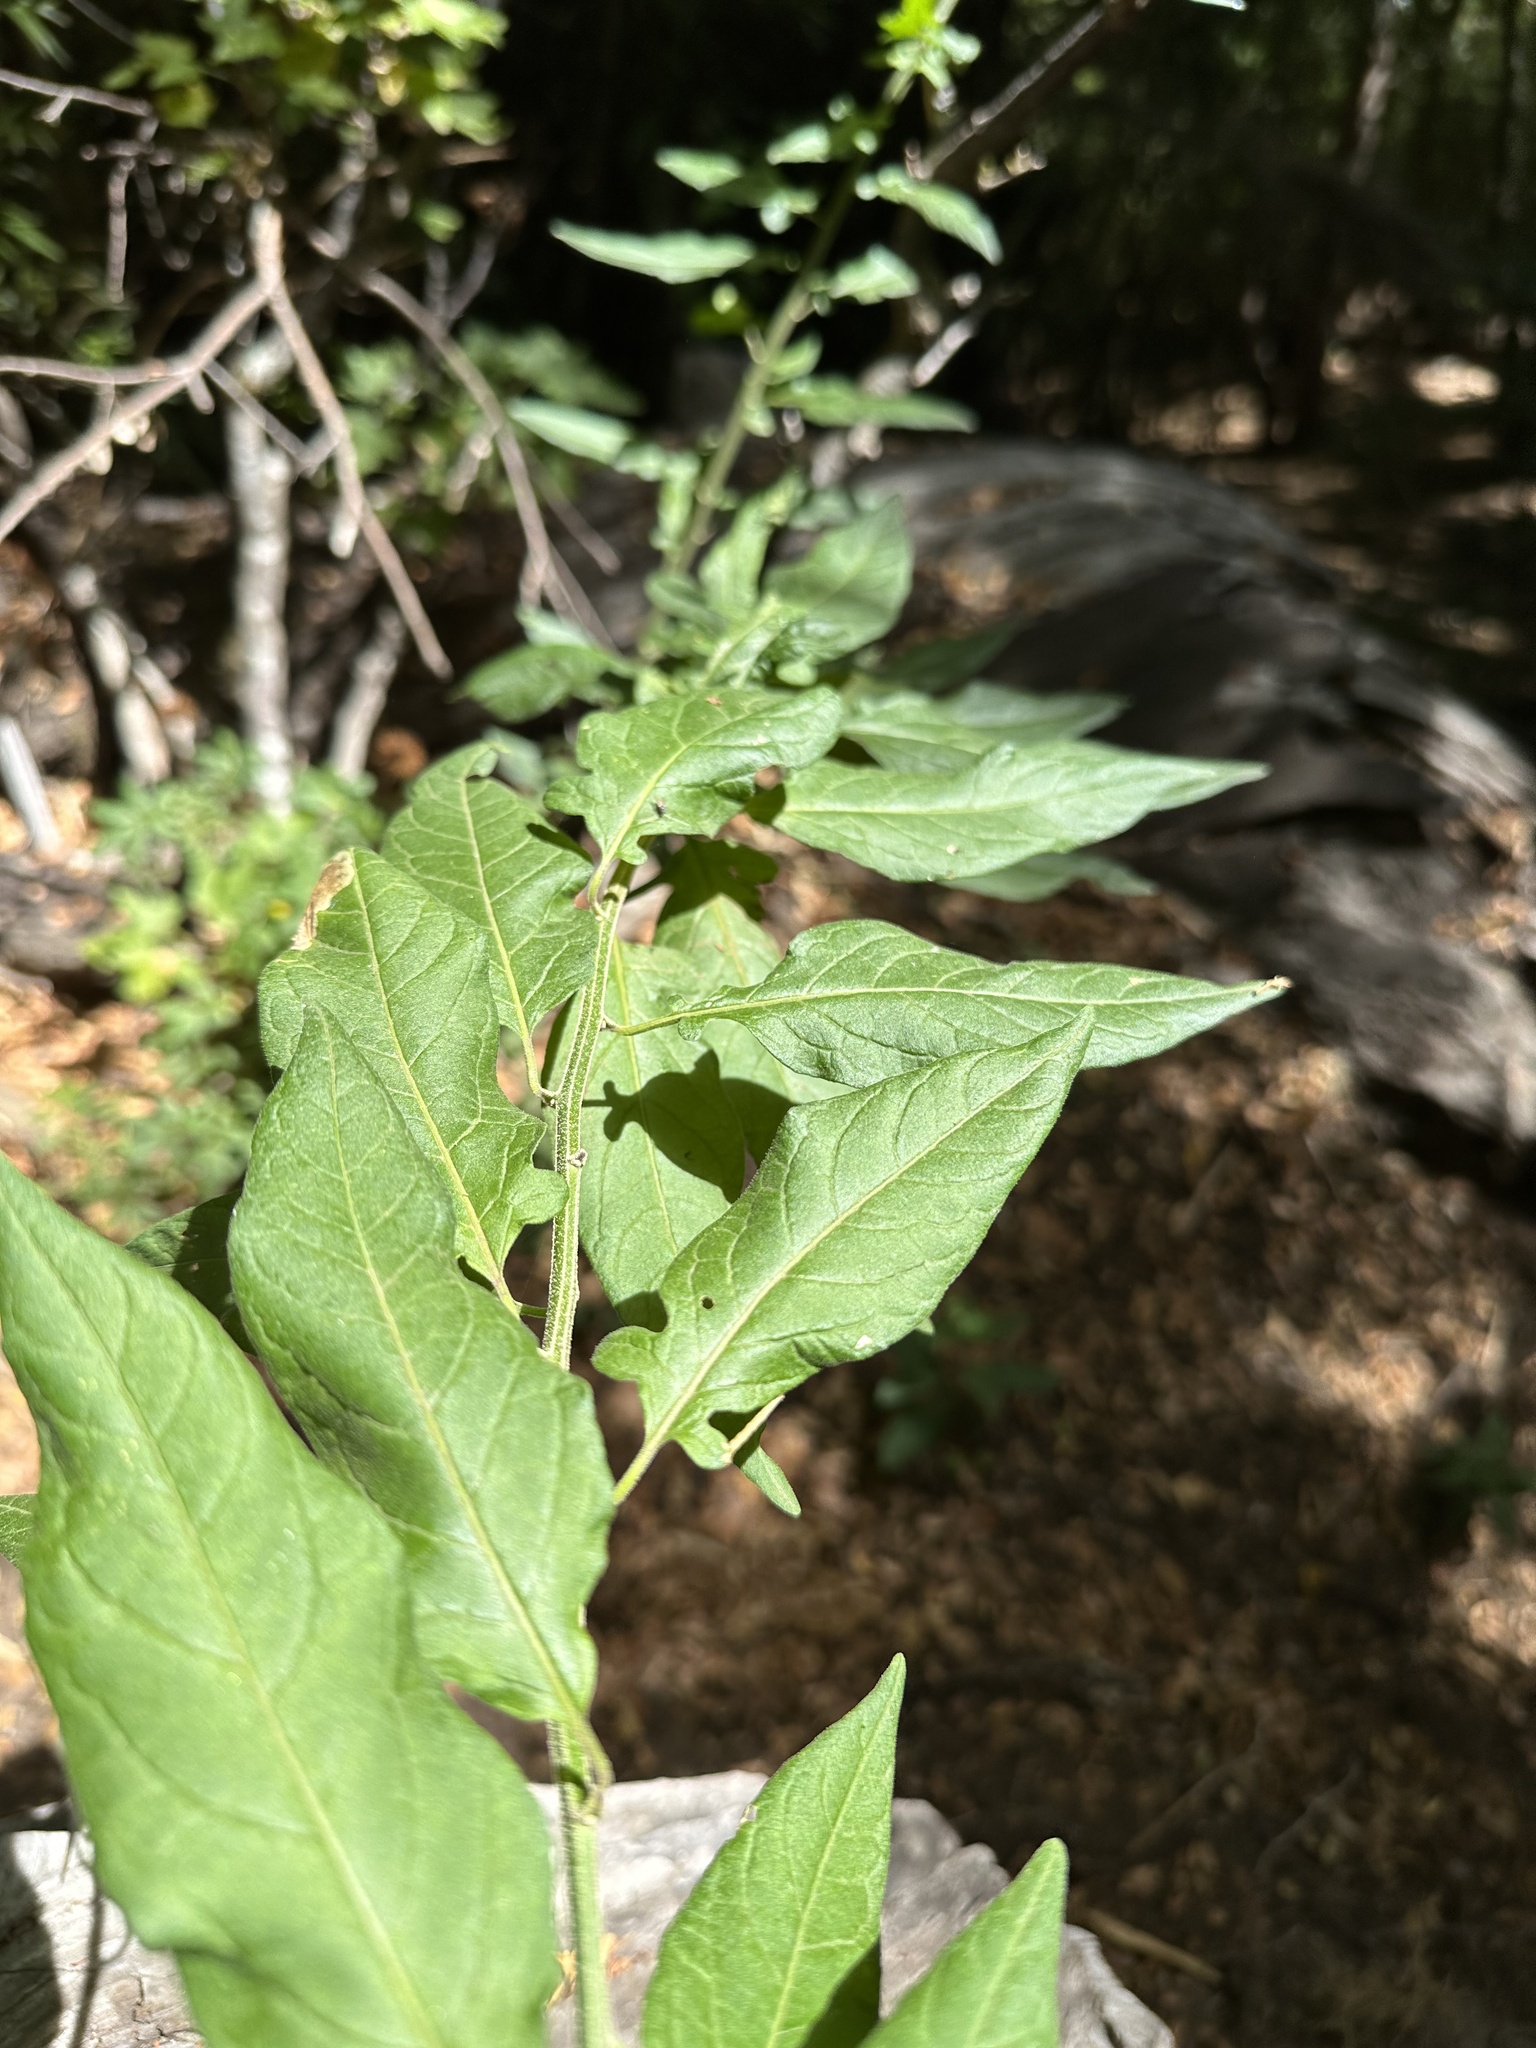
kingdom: Plantae
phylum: Tracheophyta
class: Magnoliopsida
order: Solanales
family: Solanaceae
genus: Solanum
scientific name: Solanum valdiviense
